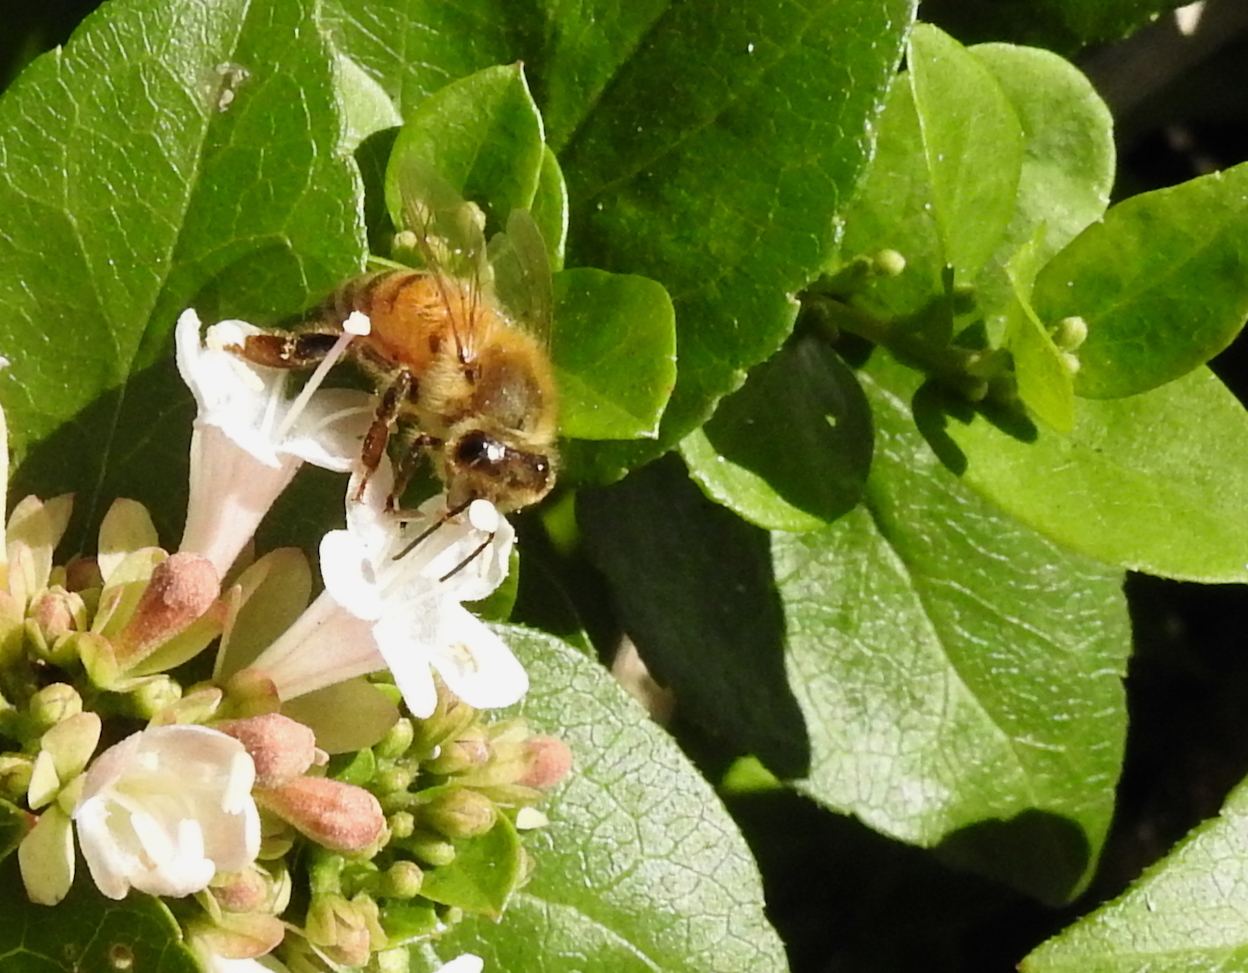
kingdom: Animalia
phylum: Arthropoda
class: Insecta
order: Hymenoptera
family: Apidae
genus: Apis
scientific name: Apis mellifera
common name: Honey bee
